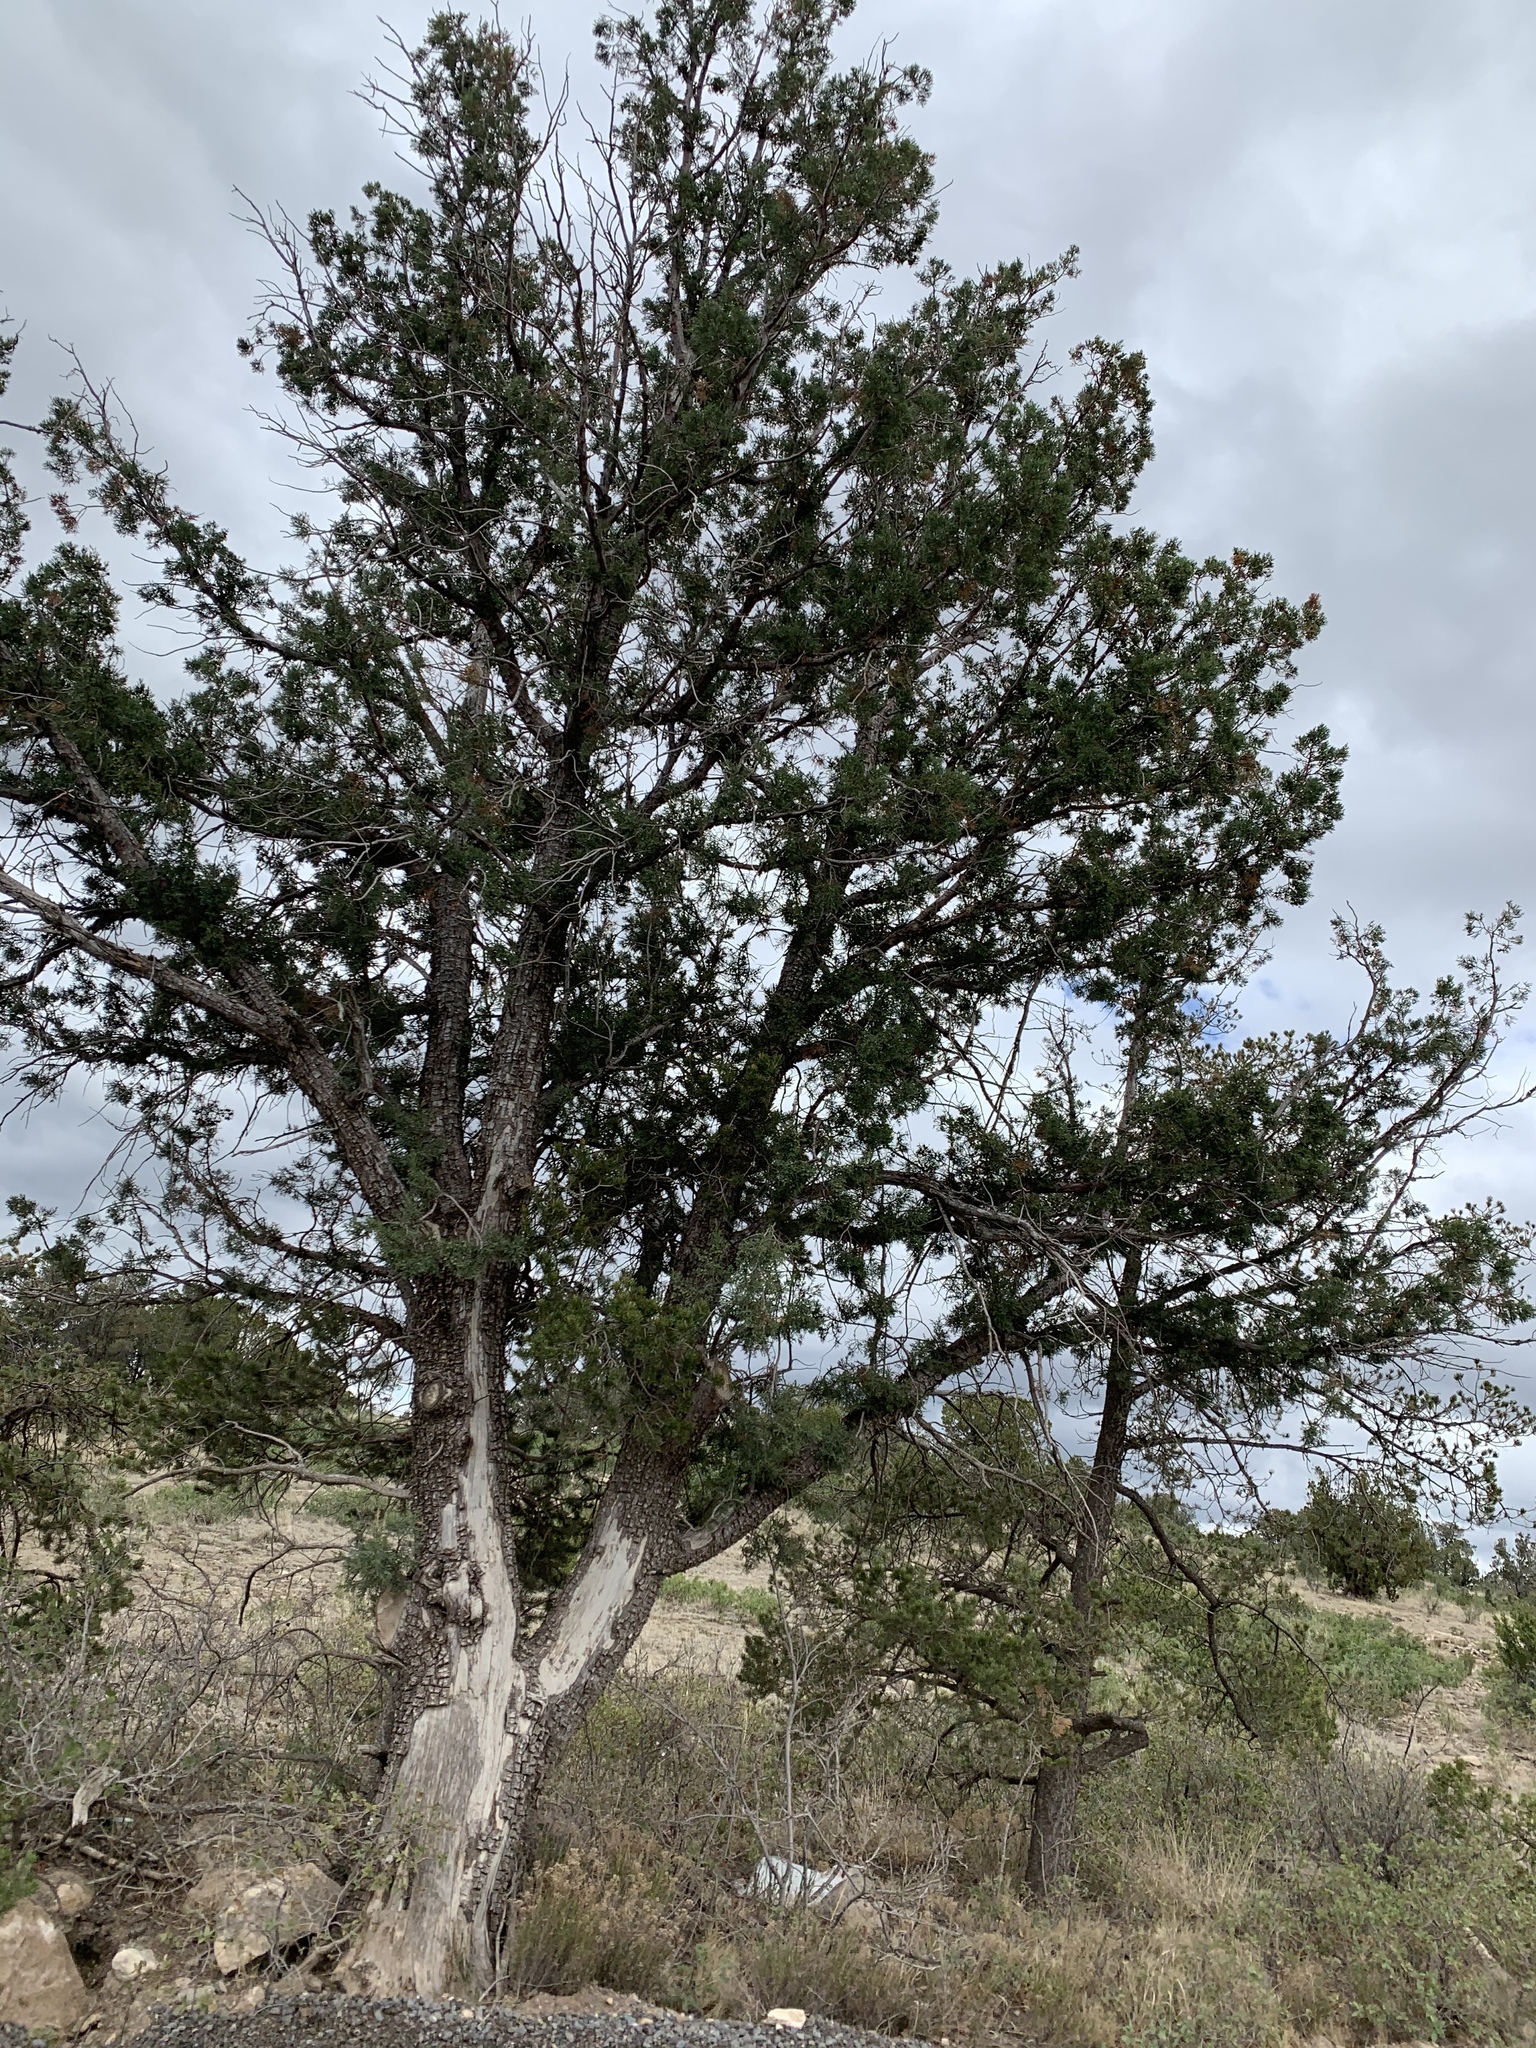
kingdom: Plantae
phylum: Tracheophyta
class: Pinopsida
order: Pinales
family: Cupressaceae
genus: Juniperus
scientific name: Juniperus deppeana
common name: Alligator juniper
